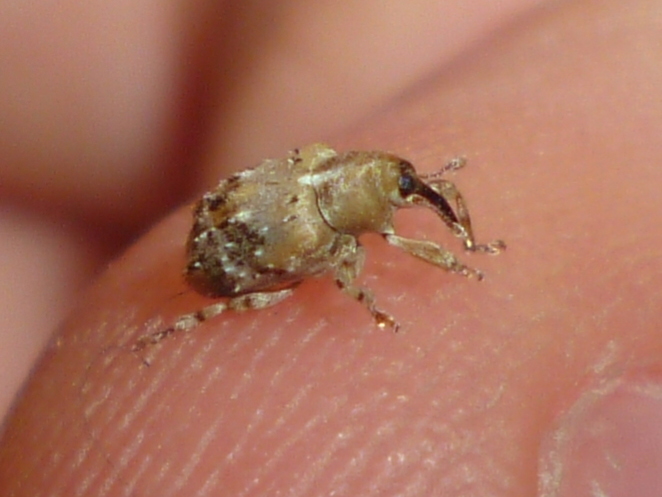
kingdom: Animalia
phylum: Arthropoda
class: Insecta
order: Coleoptera
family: Curculionidae
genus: Lignyodes
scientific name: Lignyodes pallidus
